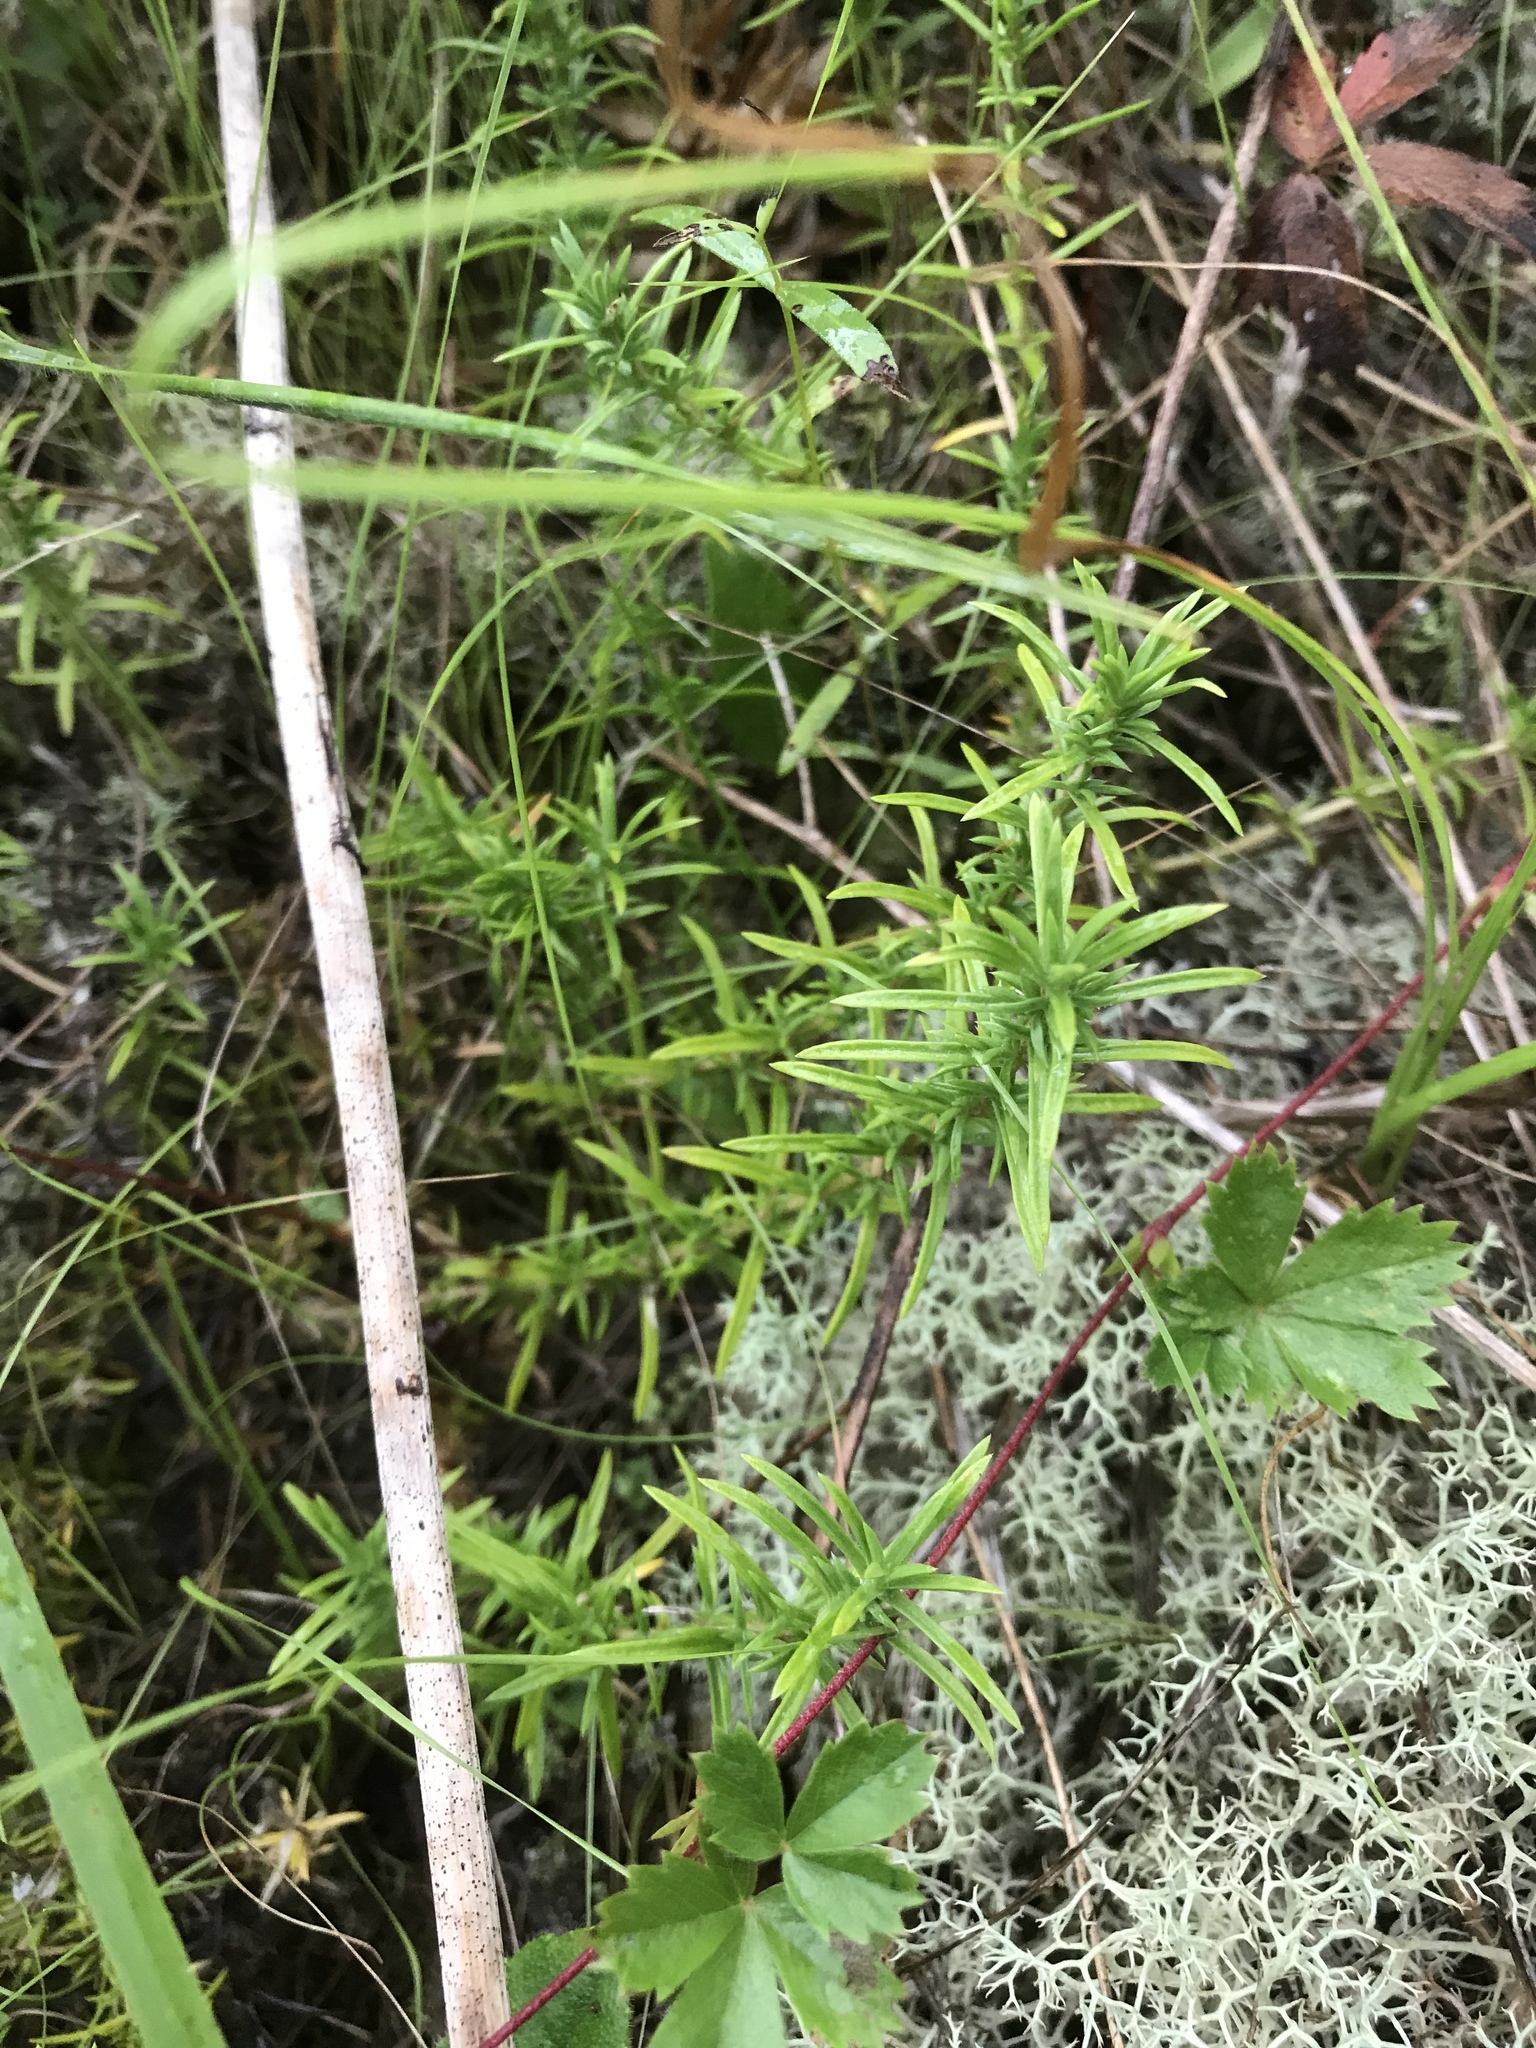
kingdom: Plantae
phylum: Tracheophyta
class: Magnoliopsida
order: Ericales
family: Polemoniaceae
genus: Phlox
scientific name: Phlox nivalis
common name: Trailing phlox
